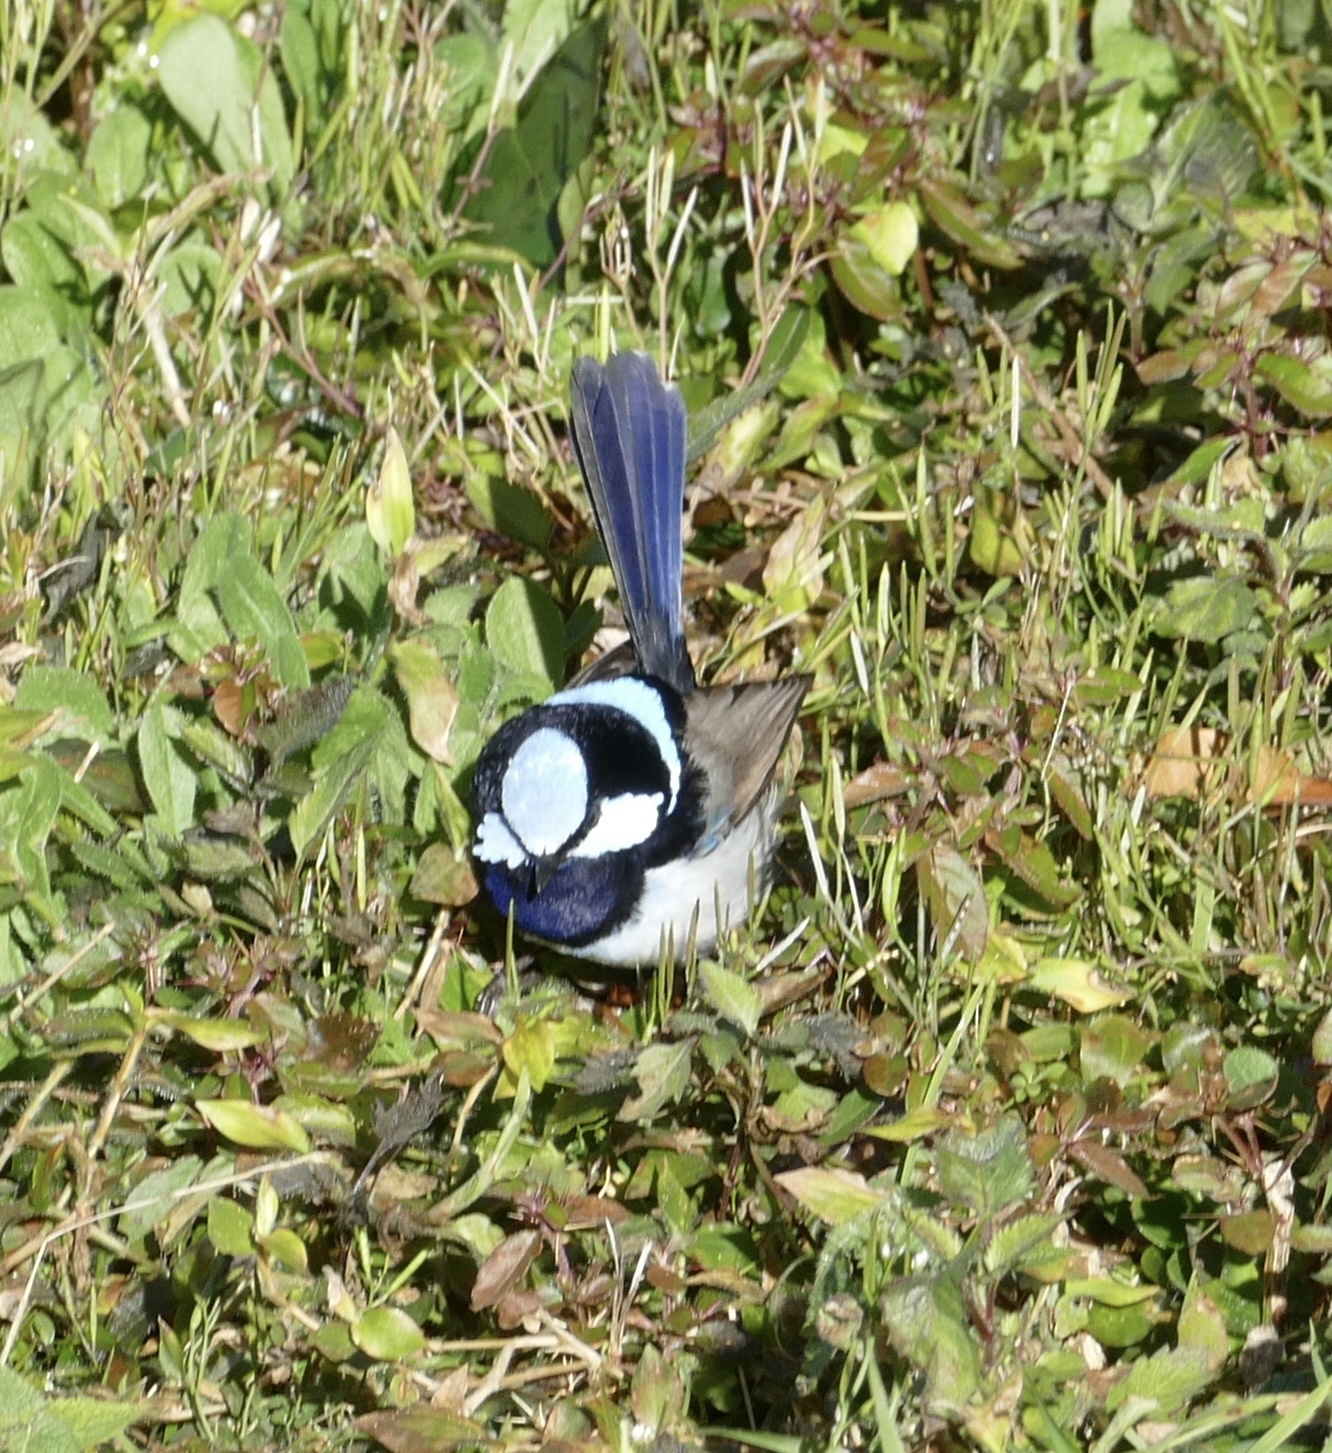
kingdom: Animalia
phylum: Chordata
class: Aves
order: Passeriformes
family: Maluridae
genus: Malurus
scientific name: Malurus cyaneus
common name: Superb fairywren
